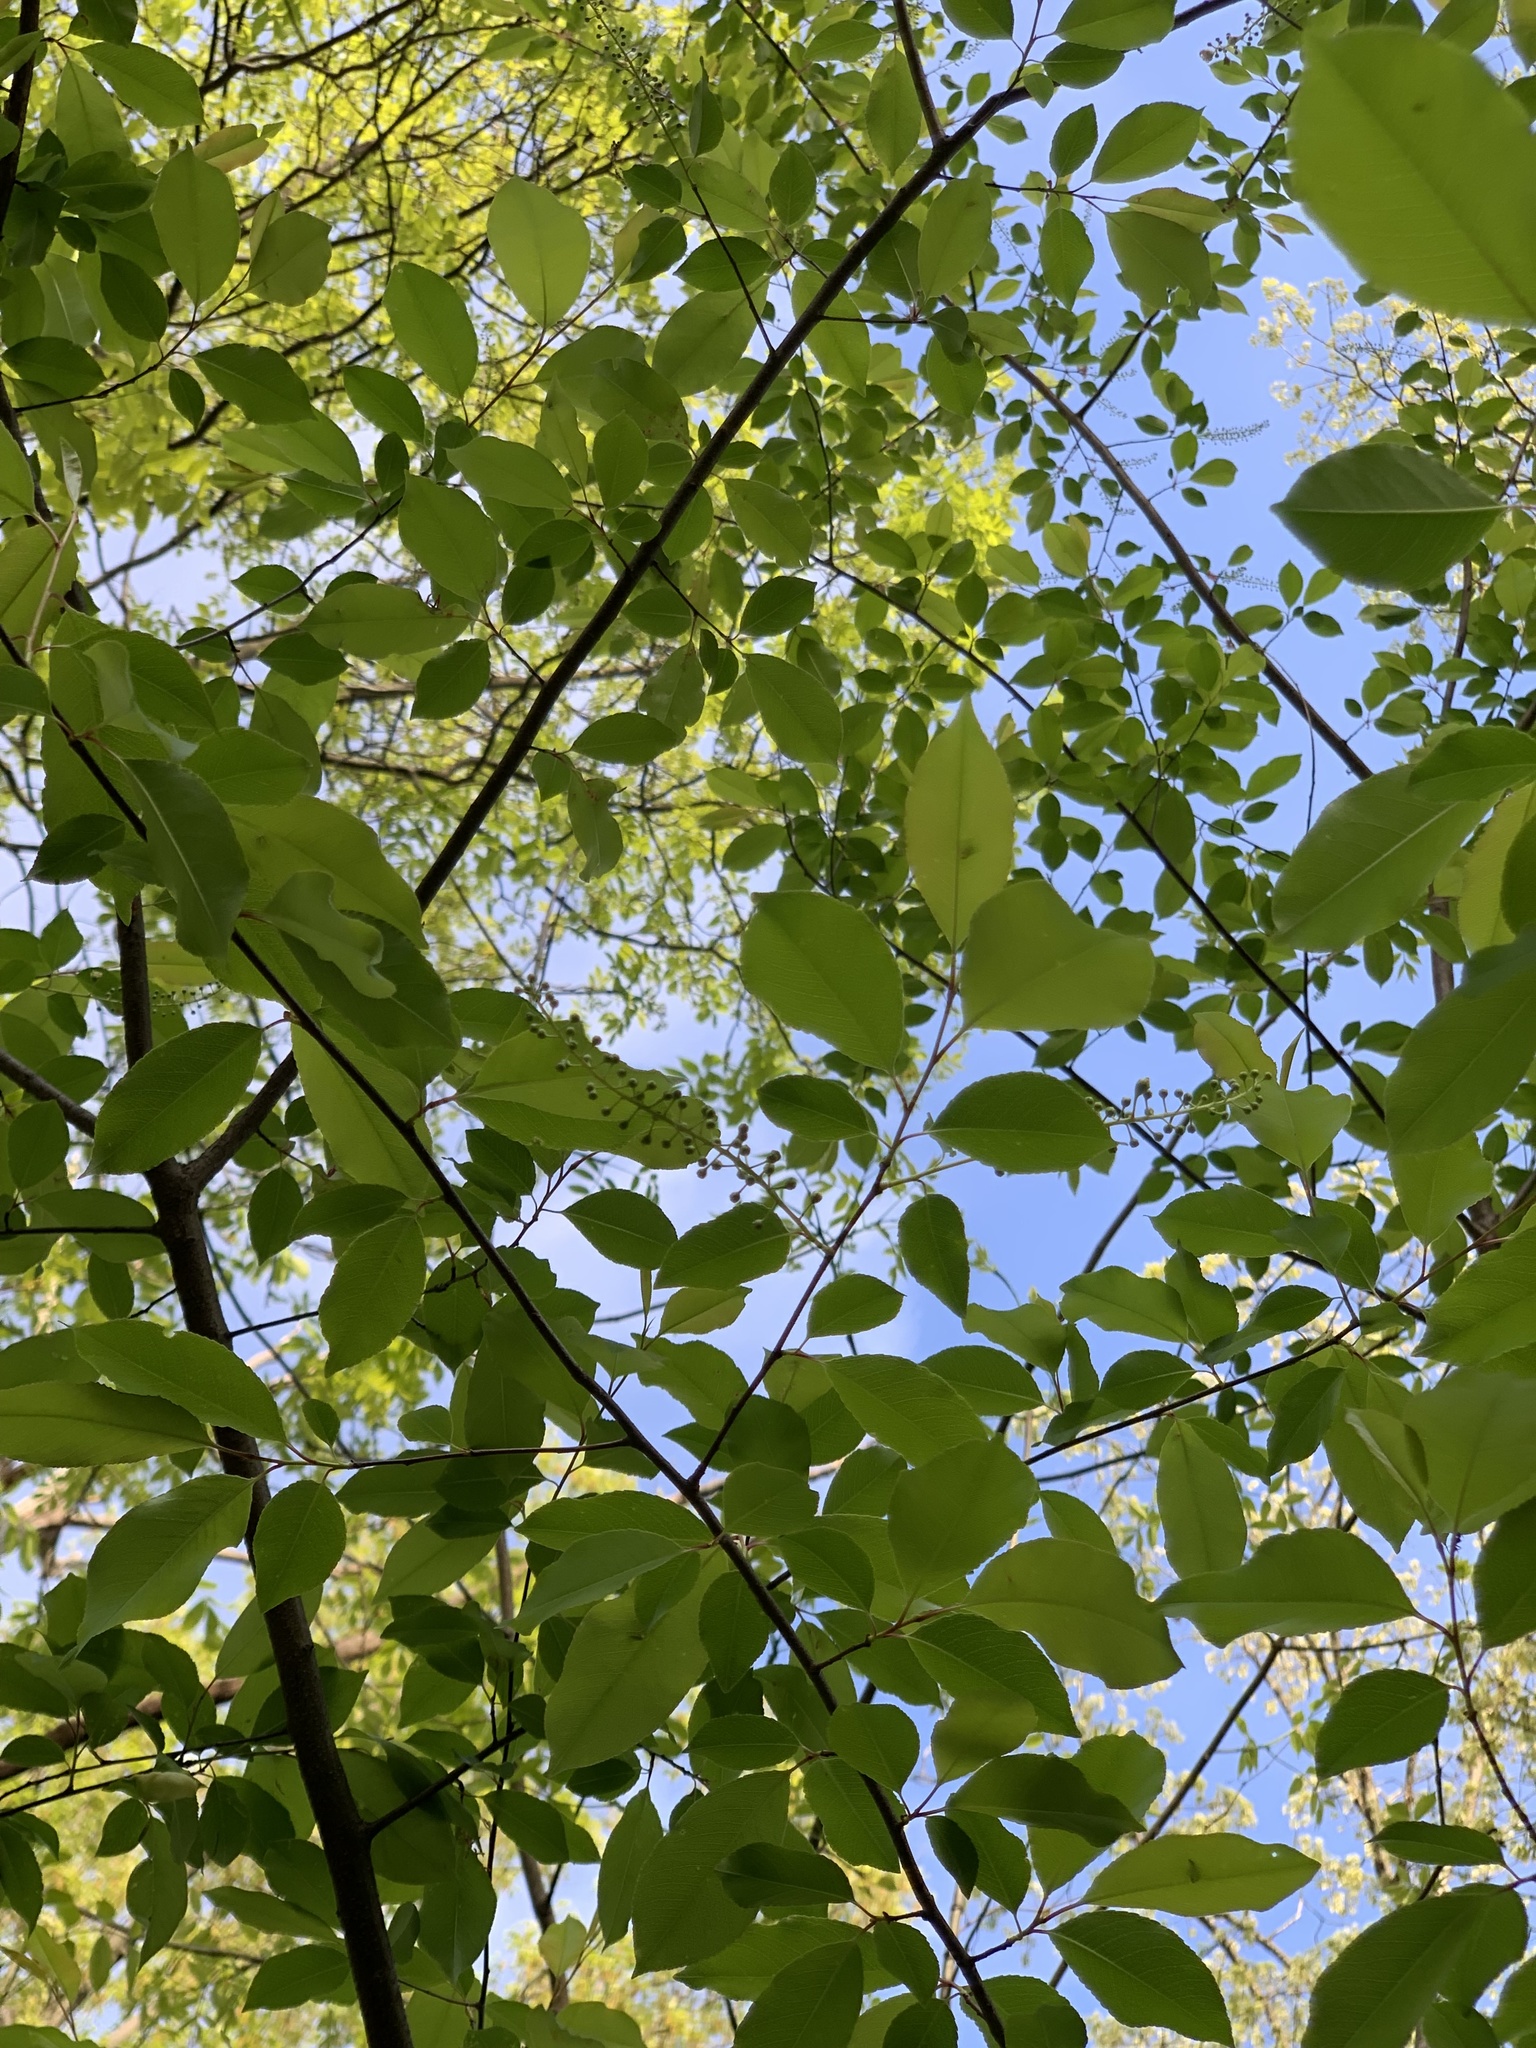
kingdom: Plantae
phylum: Tracheophyta
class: Magnoliopsida
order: Rosales
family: Rosaceae
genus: Prunus
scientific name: Prunus serotina
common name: Black cherry
